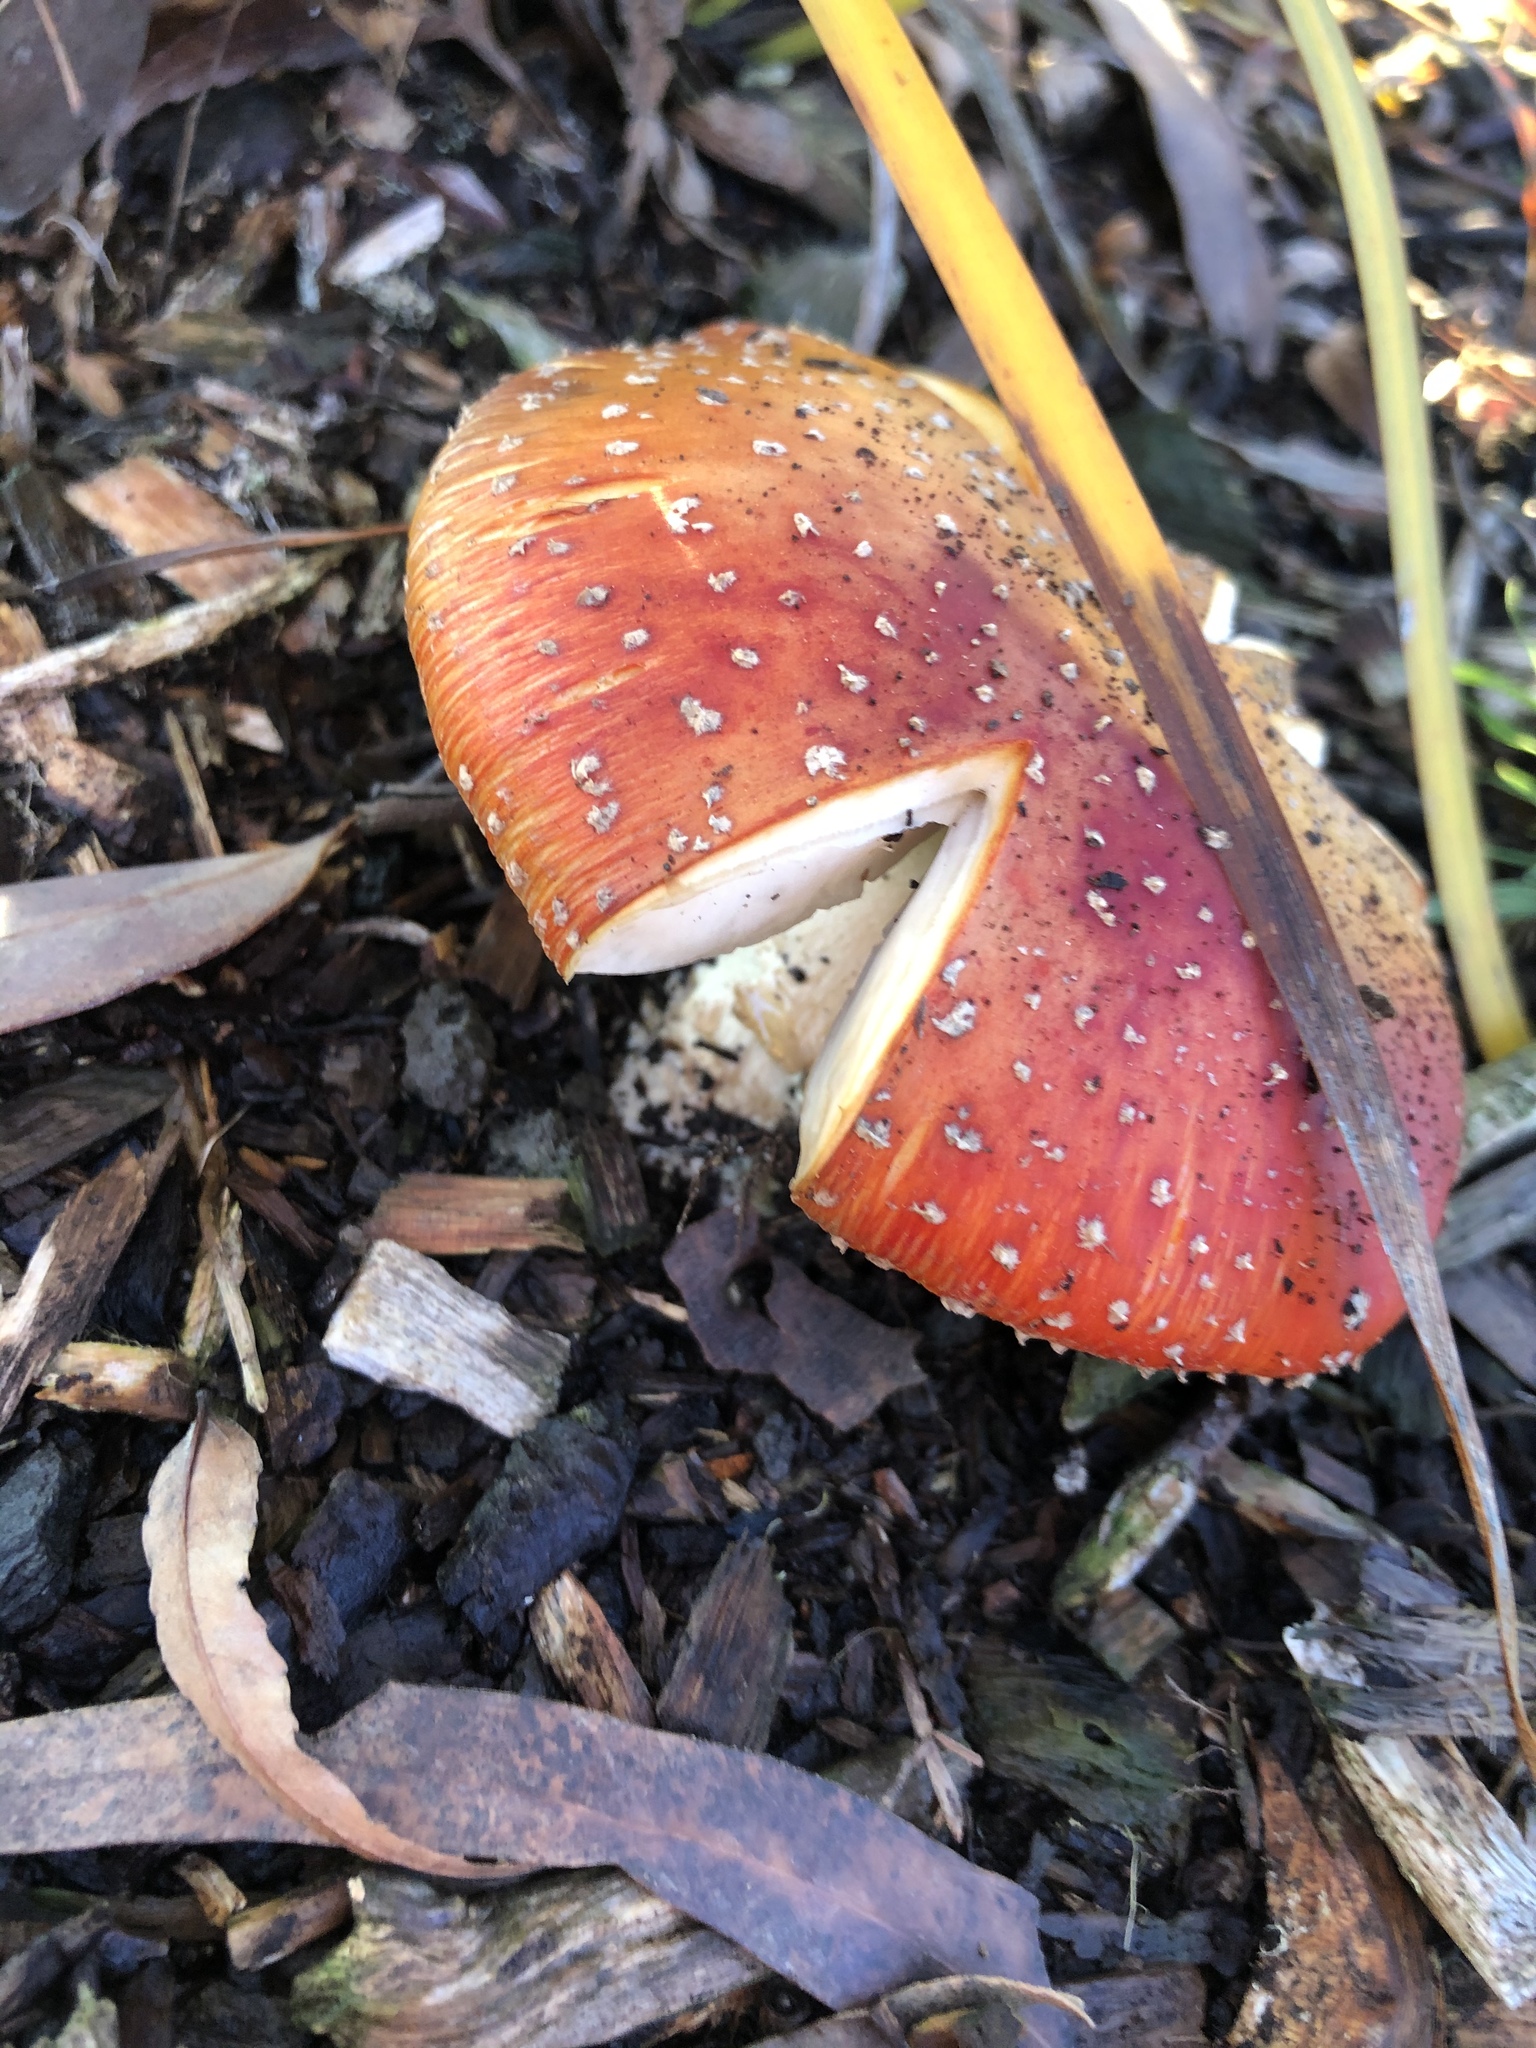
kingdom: Fungi
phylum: Basidiomycota
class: Agaricomycetes
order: Agaricales
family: Amanitaceae
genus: Amanita
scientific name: Amanita muscaria
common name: Fly agaric
